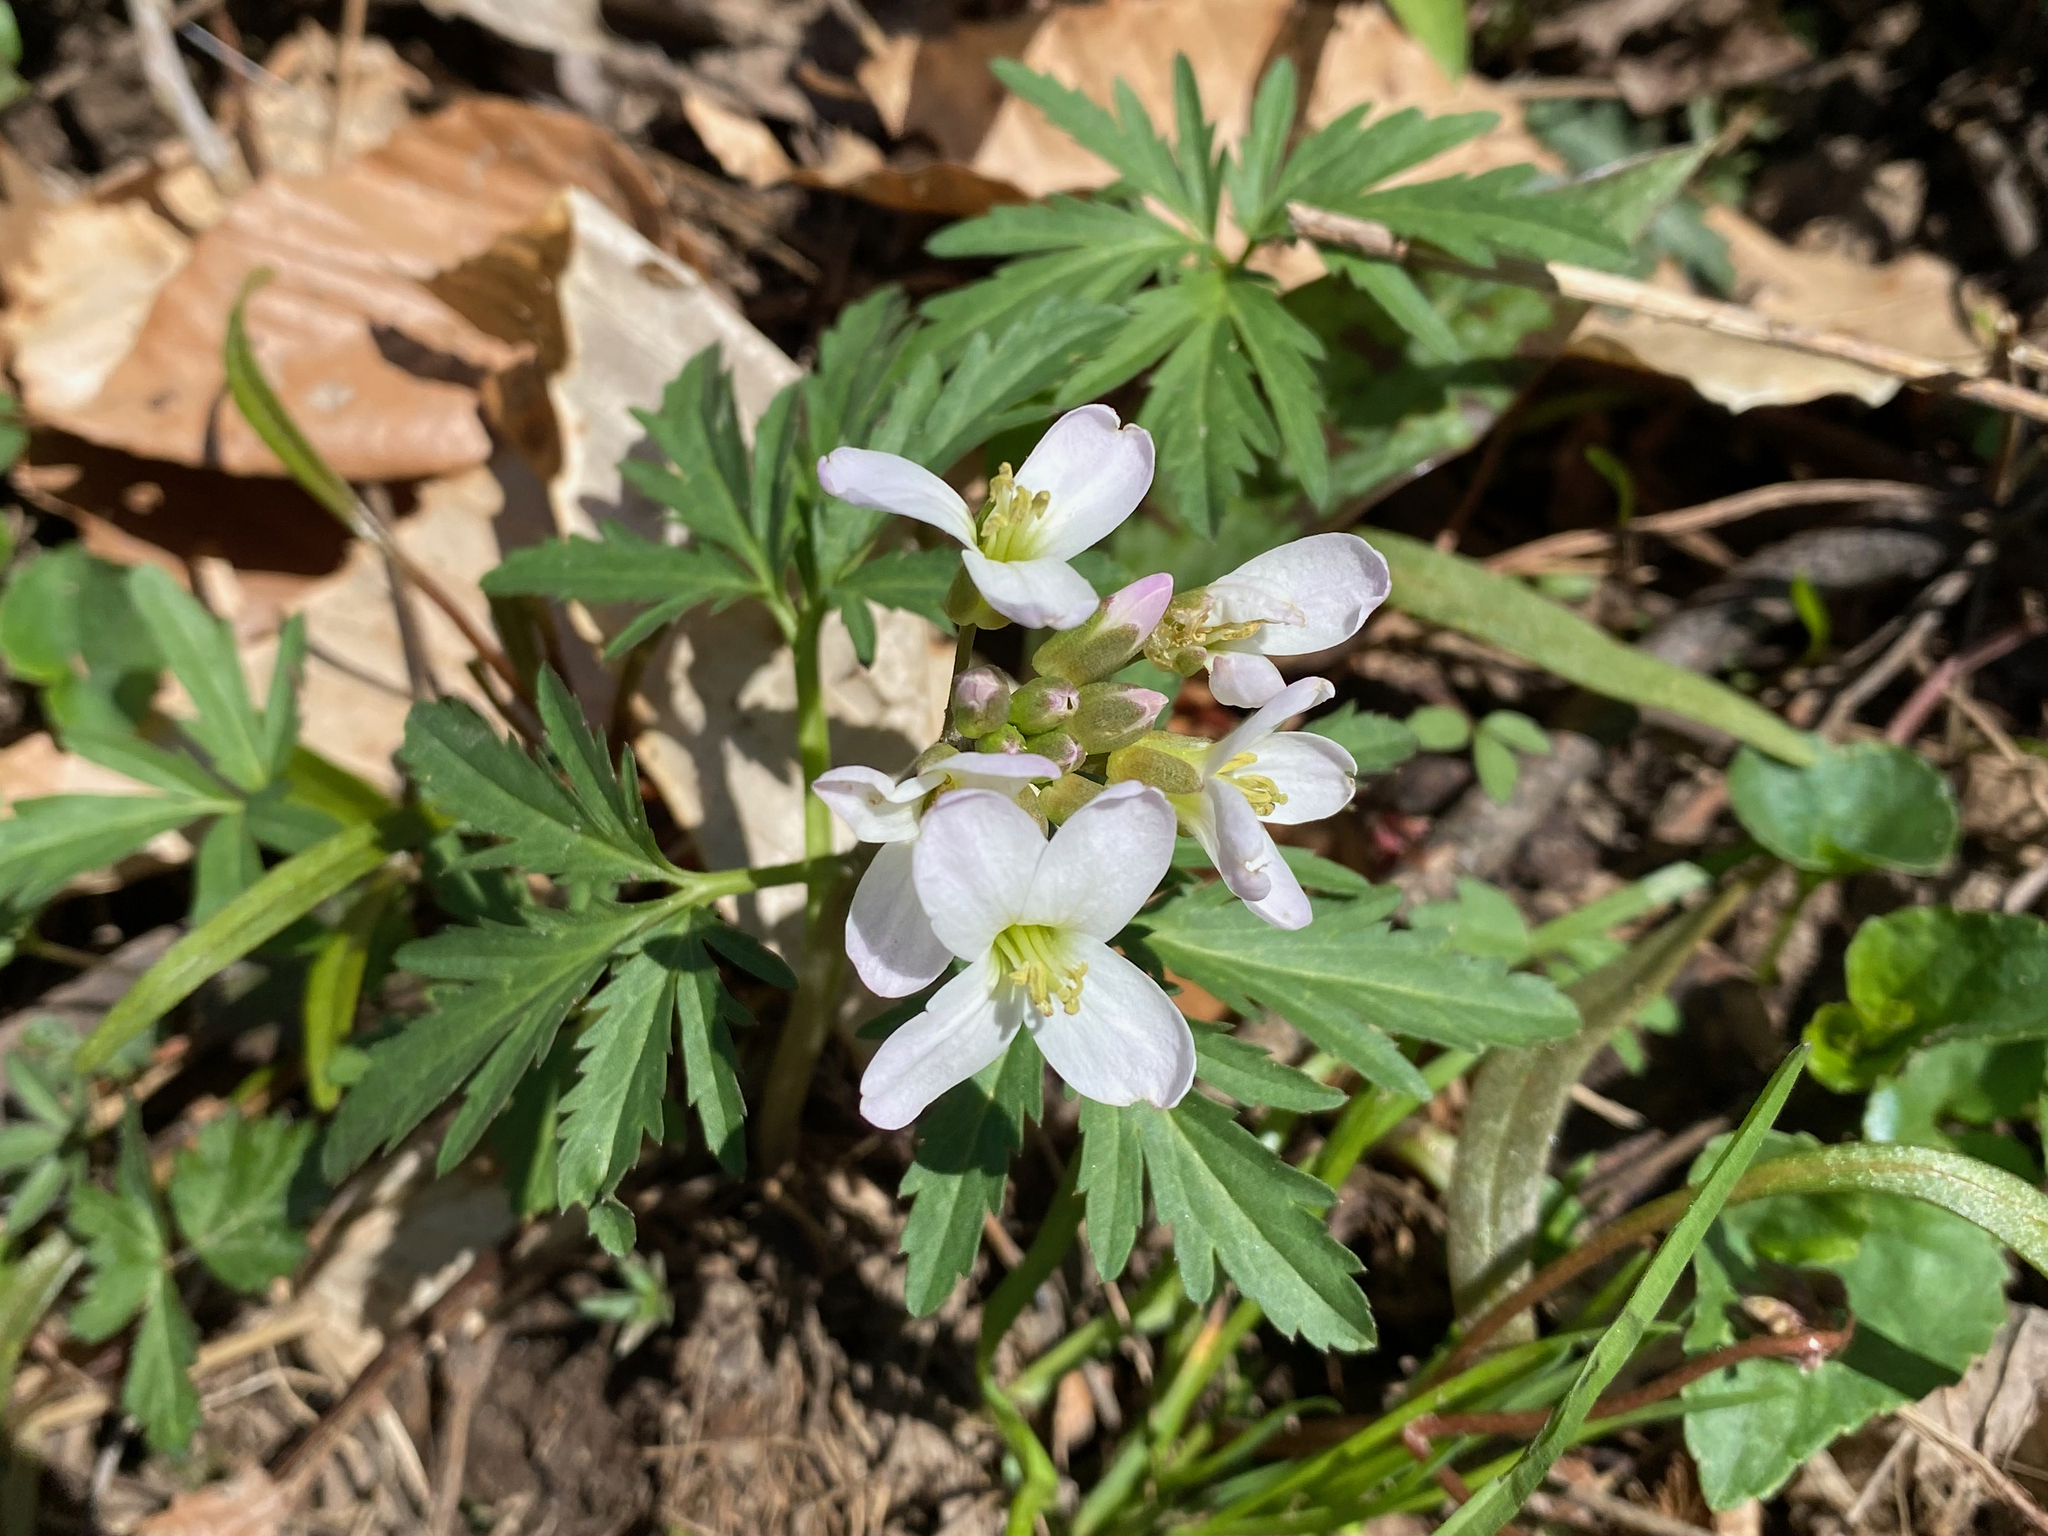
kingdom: Plantae
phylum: Tracheophyta
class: Magnoliopsida
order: Brassicales
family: Brassicaceae
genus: Cardamine
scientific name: Cardamine concatenata
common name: Cut-leaf toothcup
